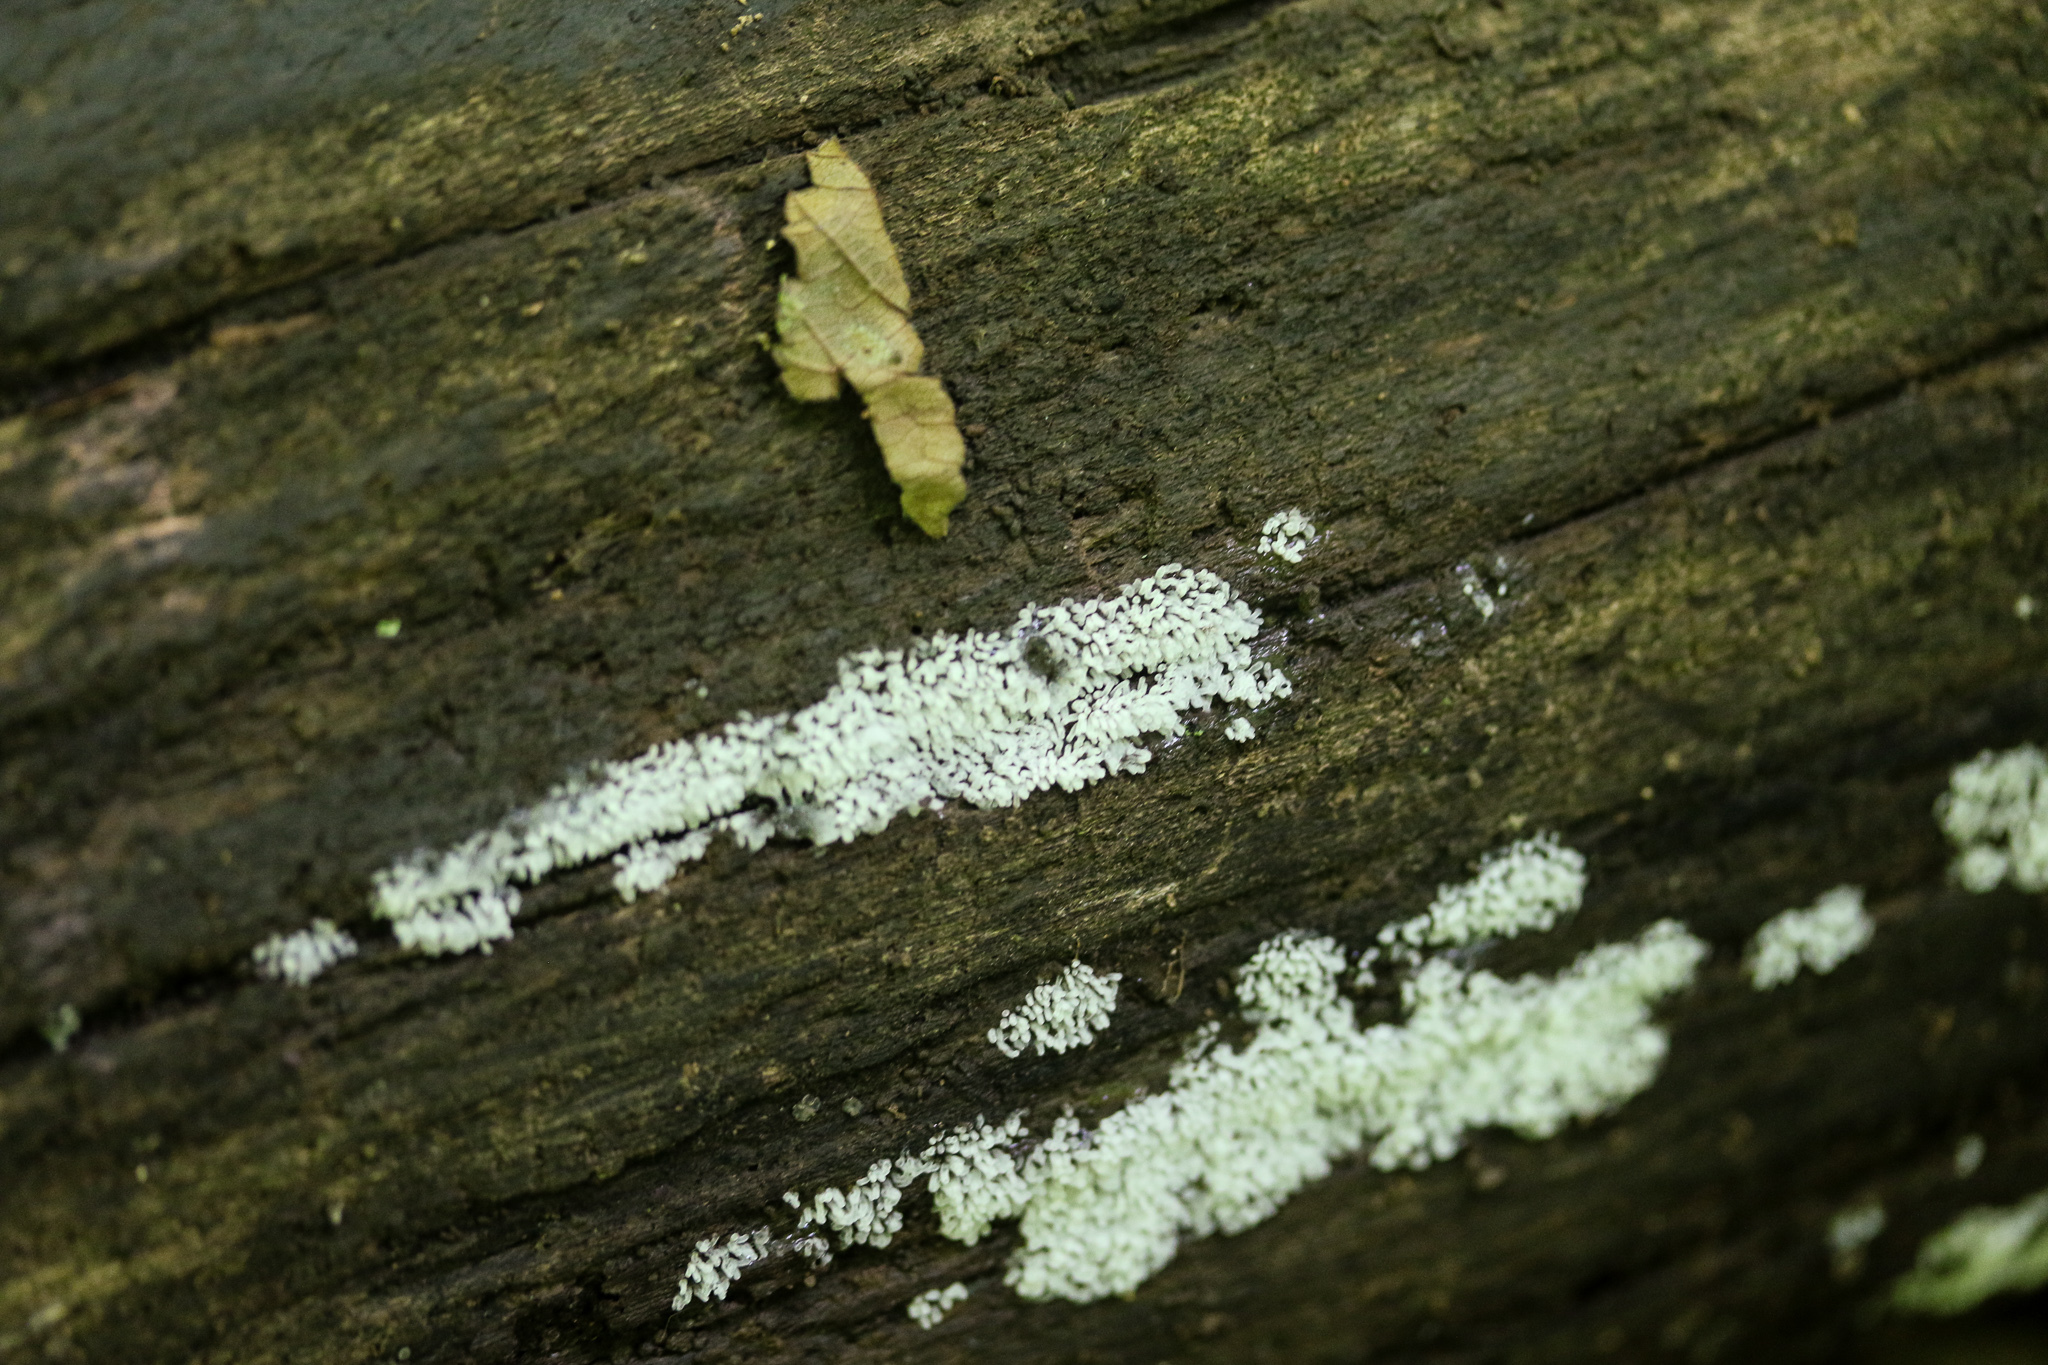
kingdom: Protozoa
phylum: Mycetozoa
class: Protosteliomycetes
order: Ceratiomyxales
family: Ceratiomyxaceae
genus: Ceratiomyxa
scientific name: Ceratiomyxa fruticulosa
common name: Honeycomb coral slime mold
